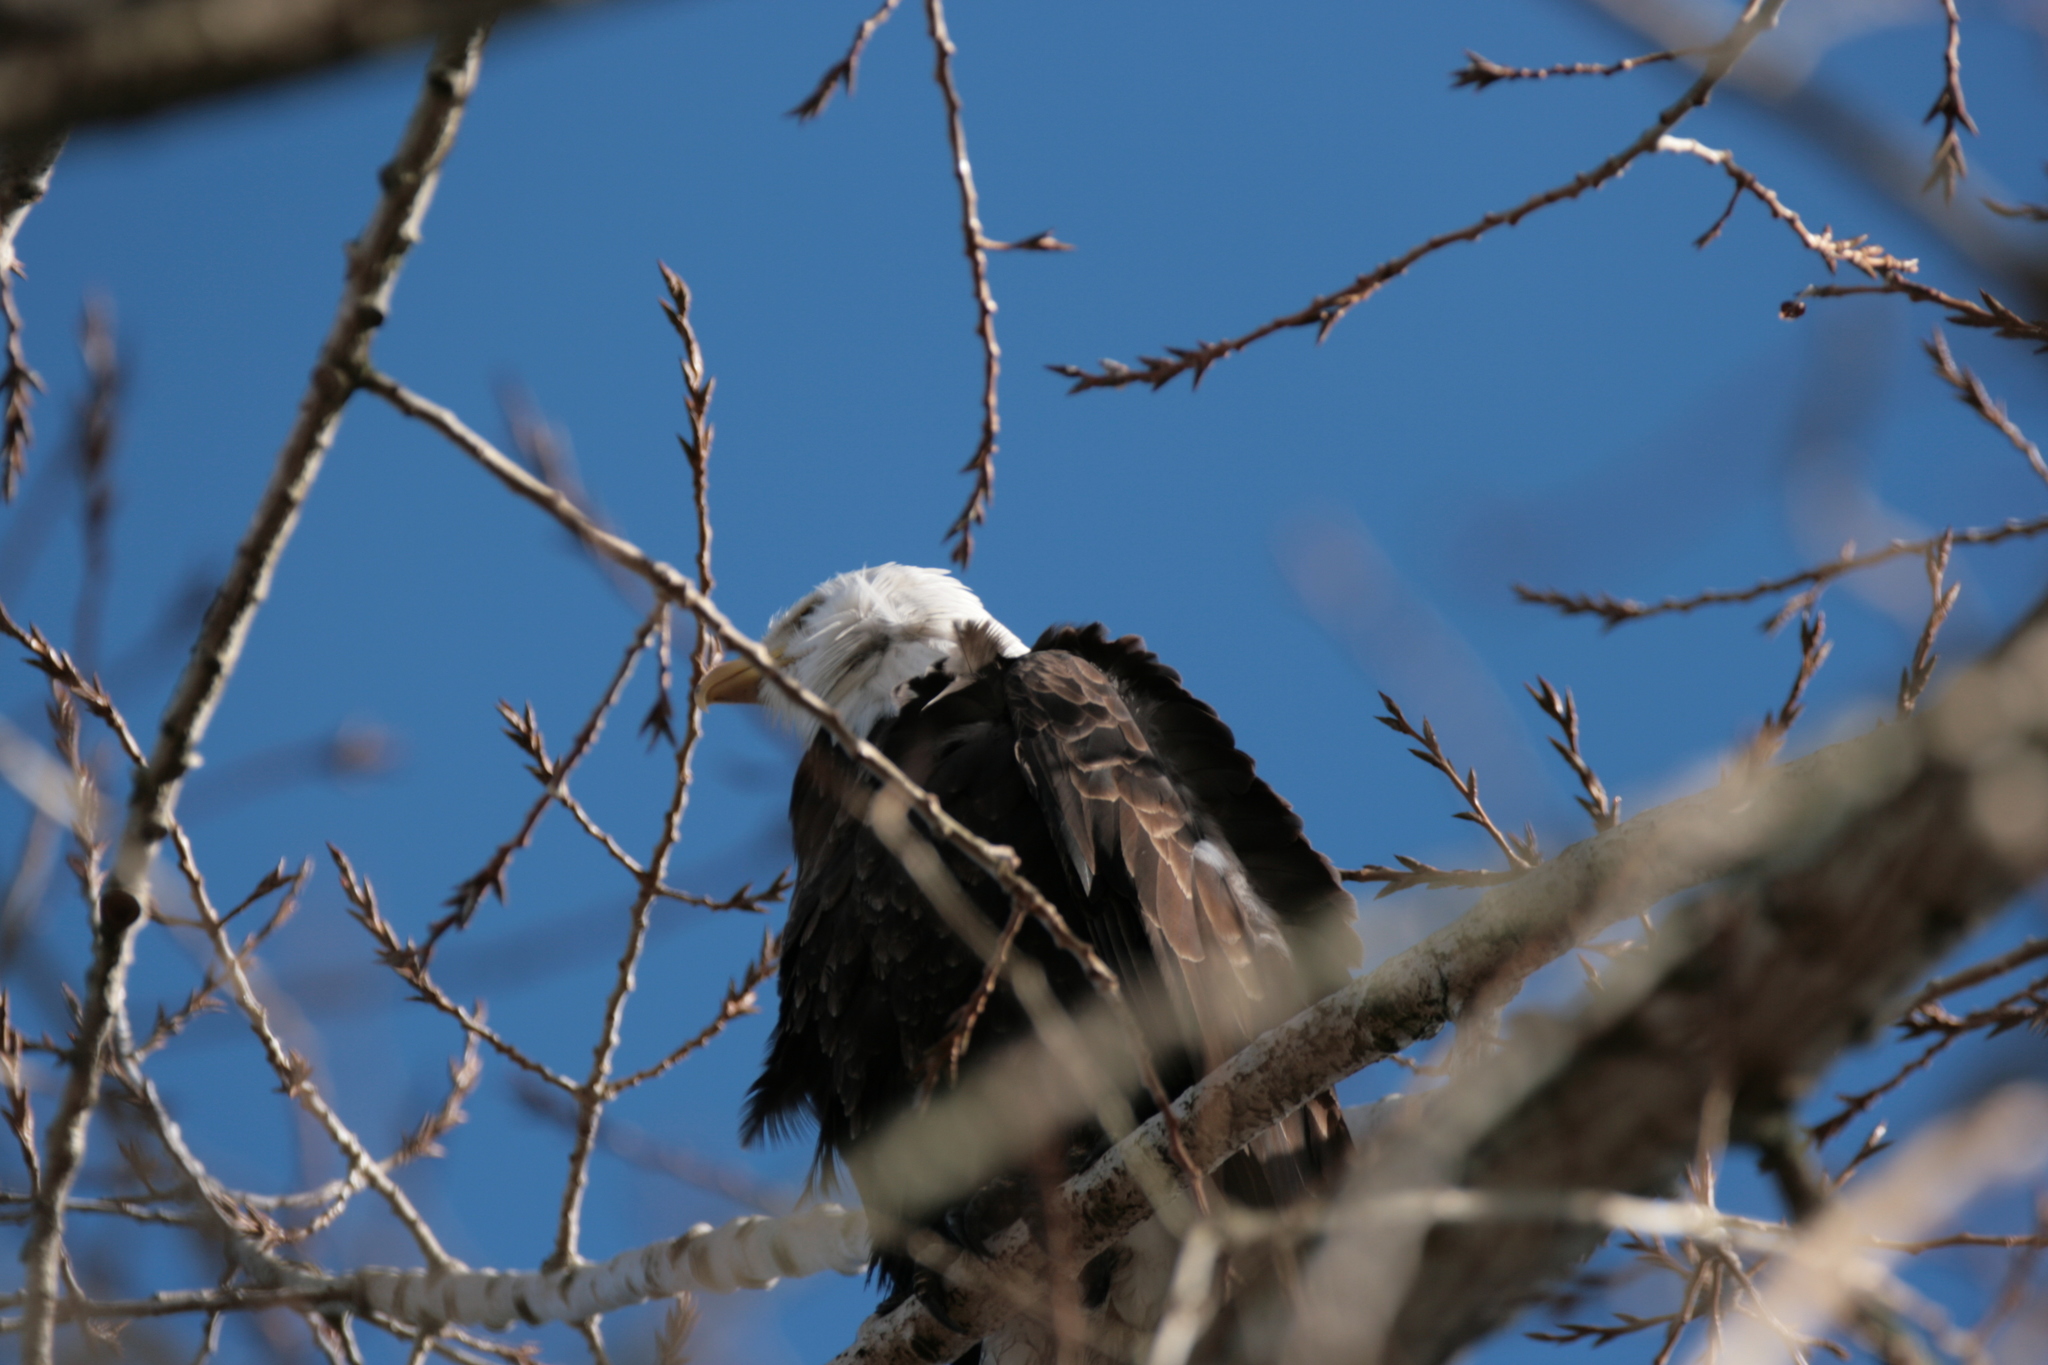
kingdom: Animalia
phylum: Chordata
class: Aves
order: Accipitriformes
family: Accipitridae
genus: Haliaeetus
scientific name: Haliaeetus leucocephalus
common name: Bald eagle
